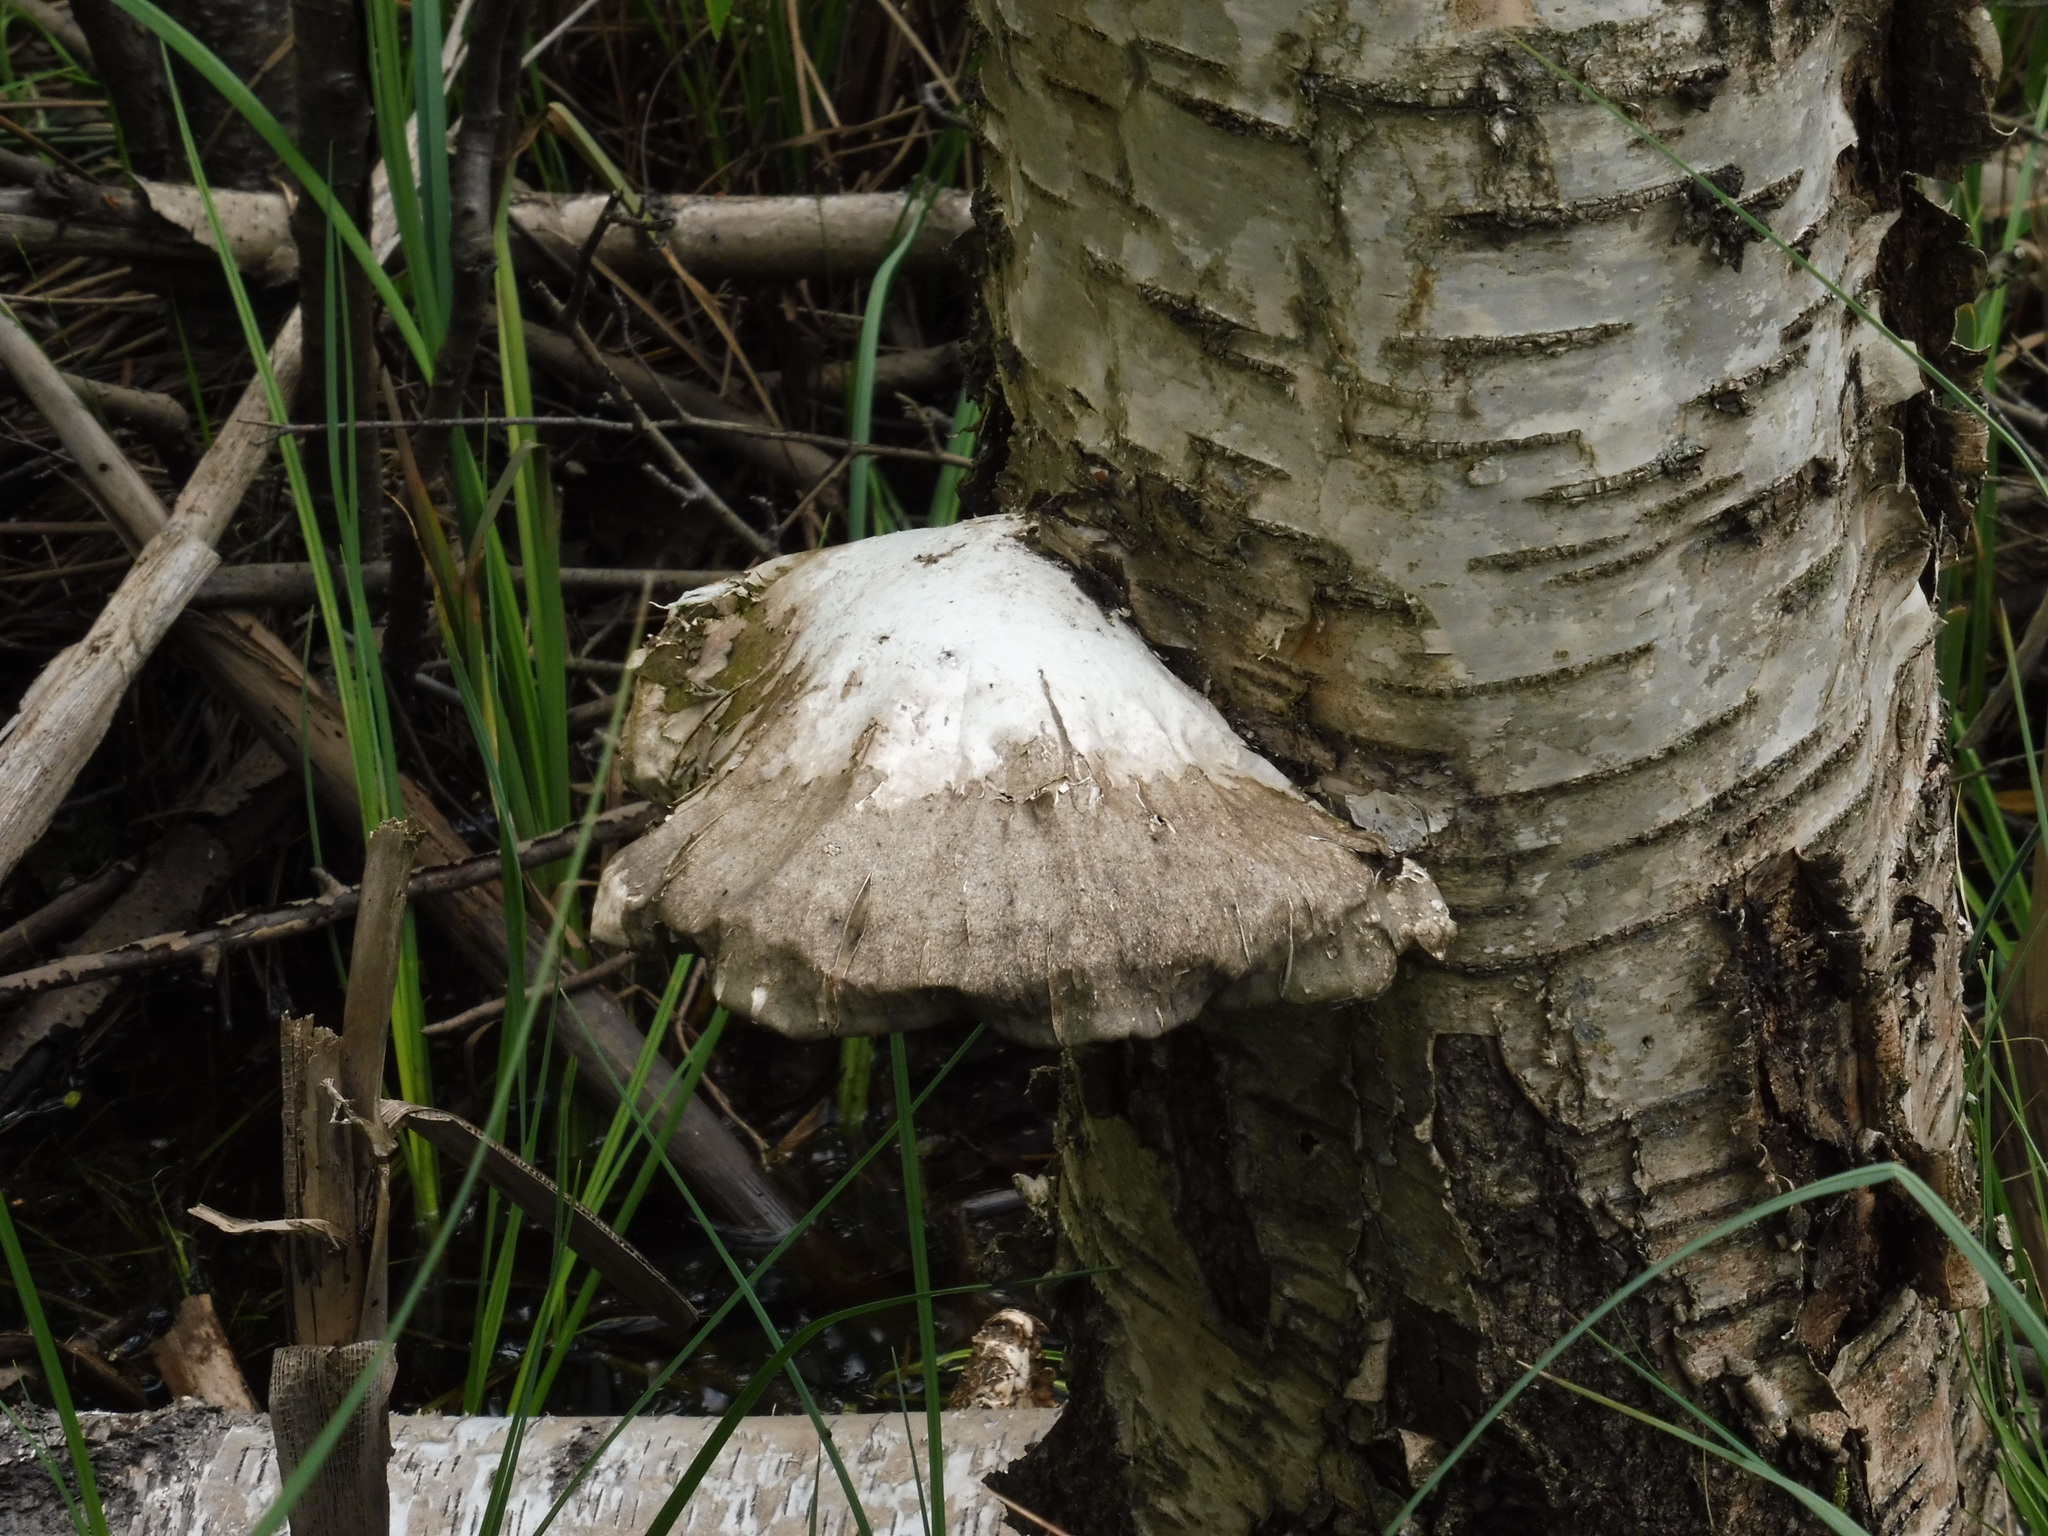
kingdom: Fungi
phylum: Basidiomycota
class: Agaricomycetes
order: Polyporales
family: Fomitopsidaceae
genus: Fomitopsis
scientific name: Fomitopsis betulina
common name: Birch polypore
